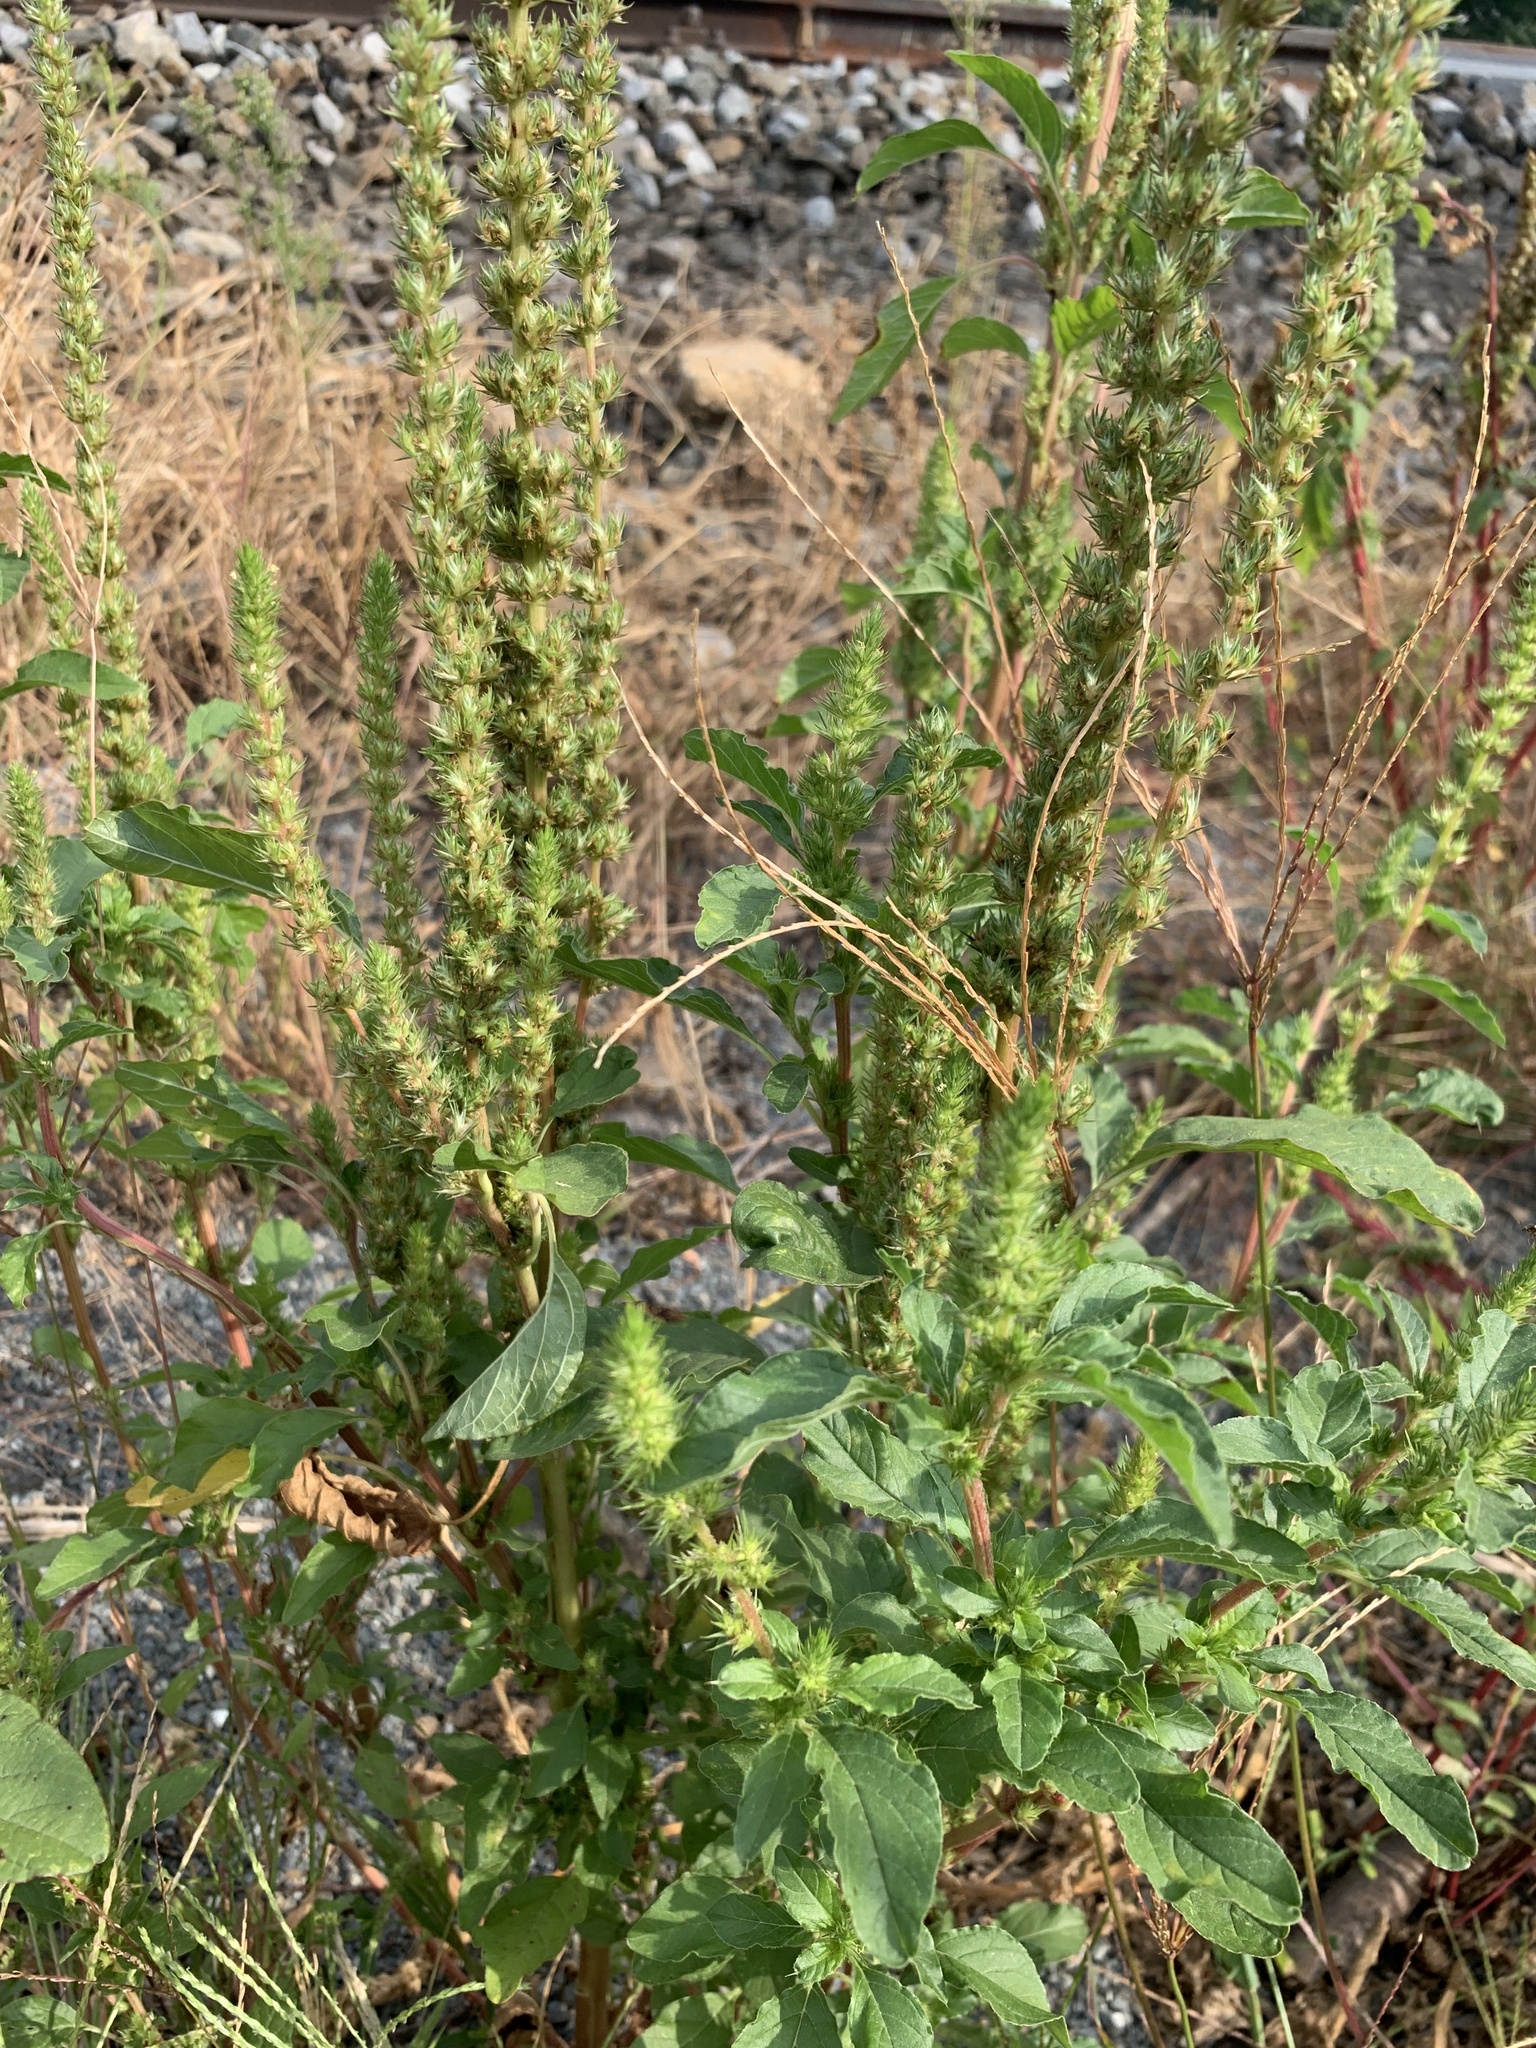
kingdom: Plantae
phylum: Tracheophyta
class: Magnoliopsida
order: Caryophyllales
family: Amaranthaceae
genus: Amaranthus
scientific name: Amaranthus powellii
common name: Powell's amaranth
